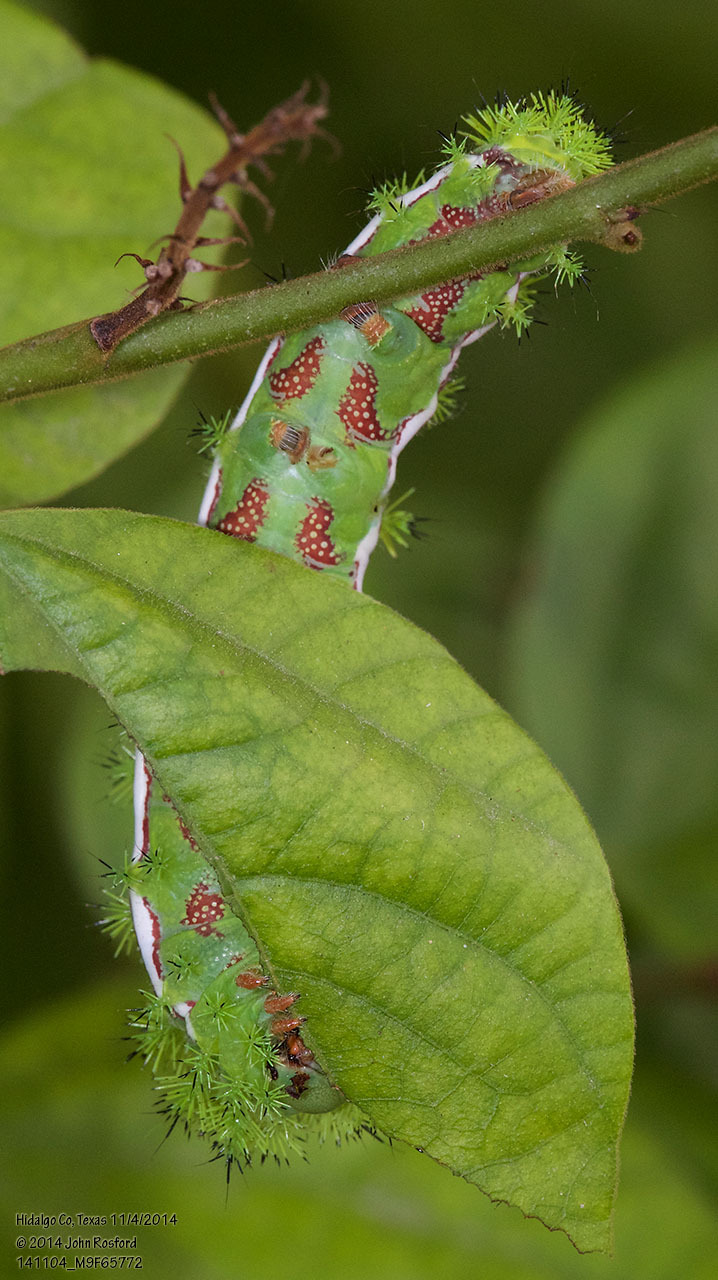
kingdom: Animalia
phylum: Arthropoda
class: Insecta
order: Lepidoptera
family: Saturniidae
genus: Automeris
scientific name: Automeris io
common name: Io moth
